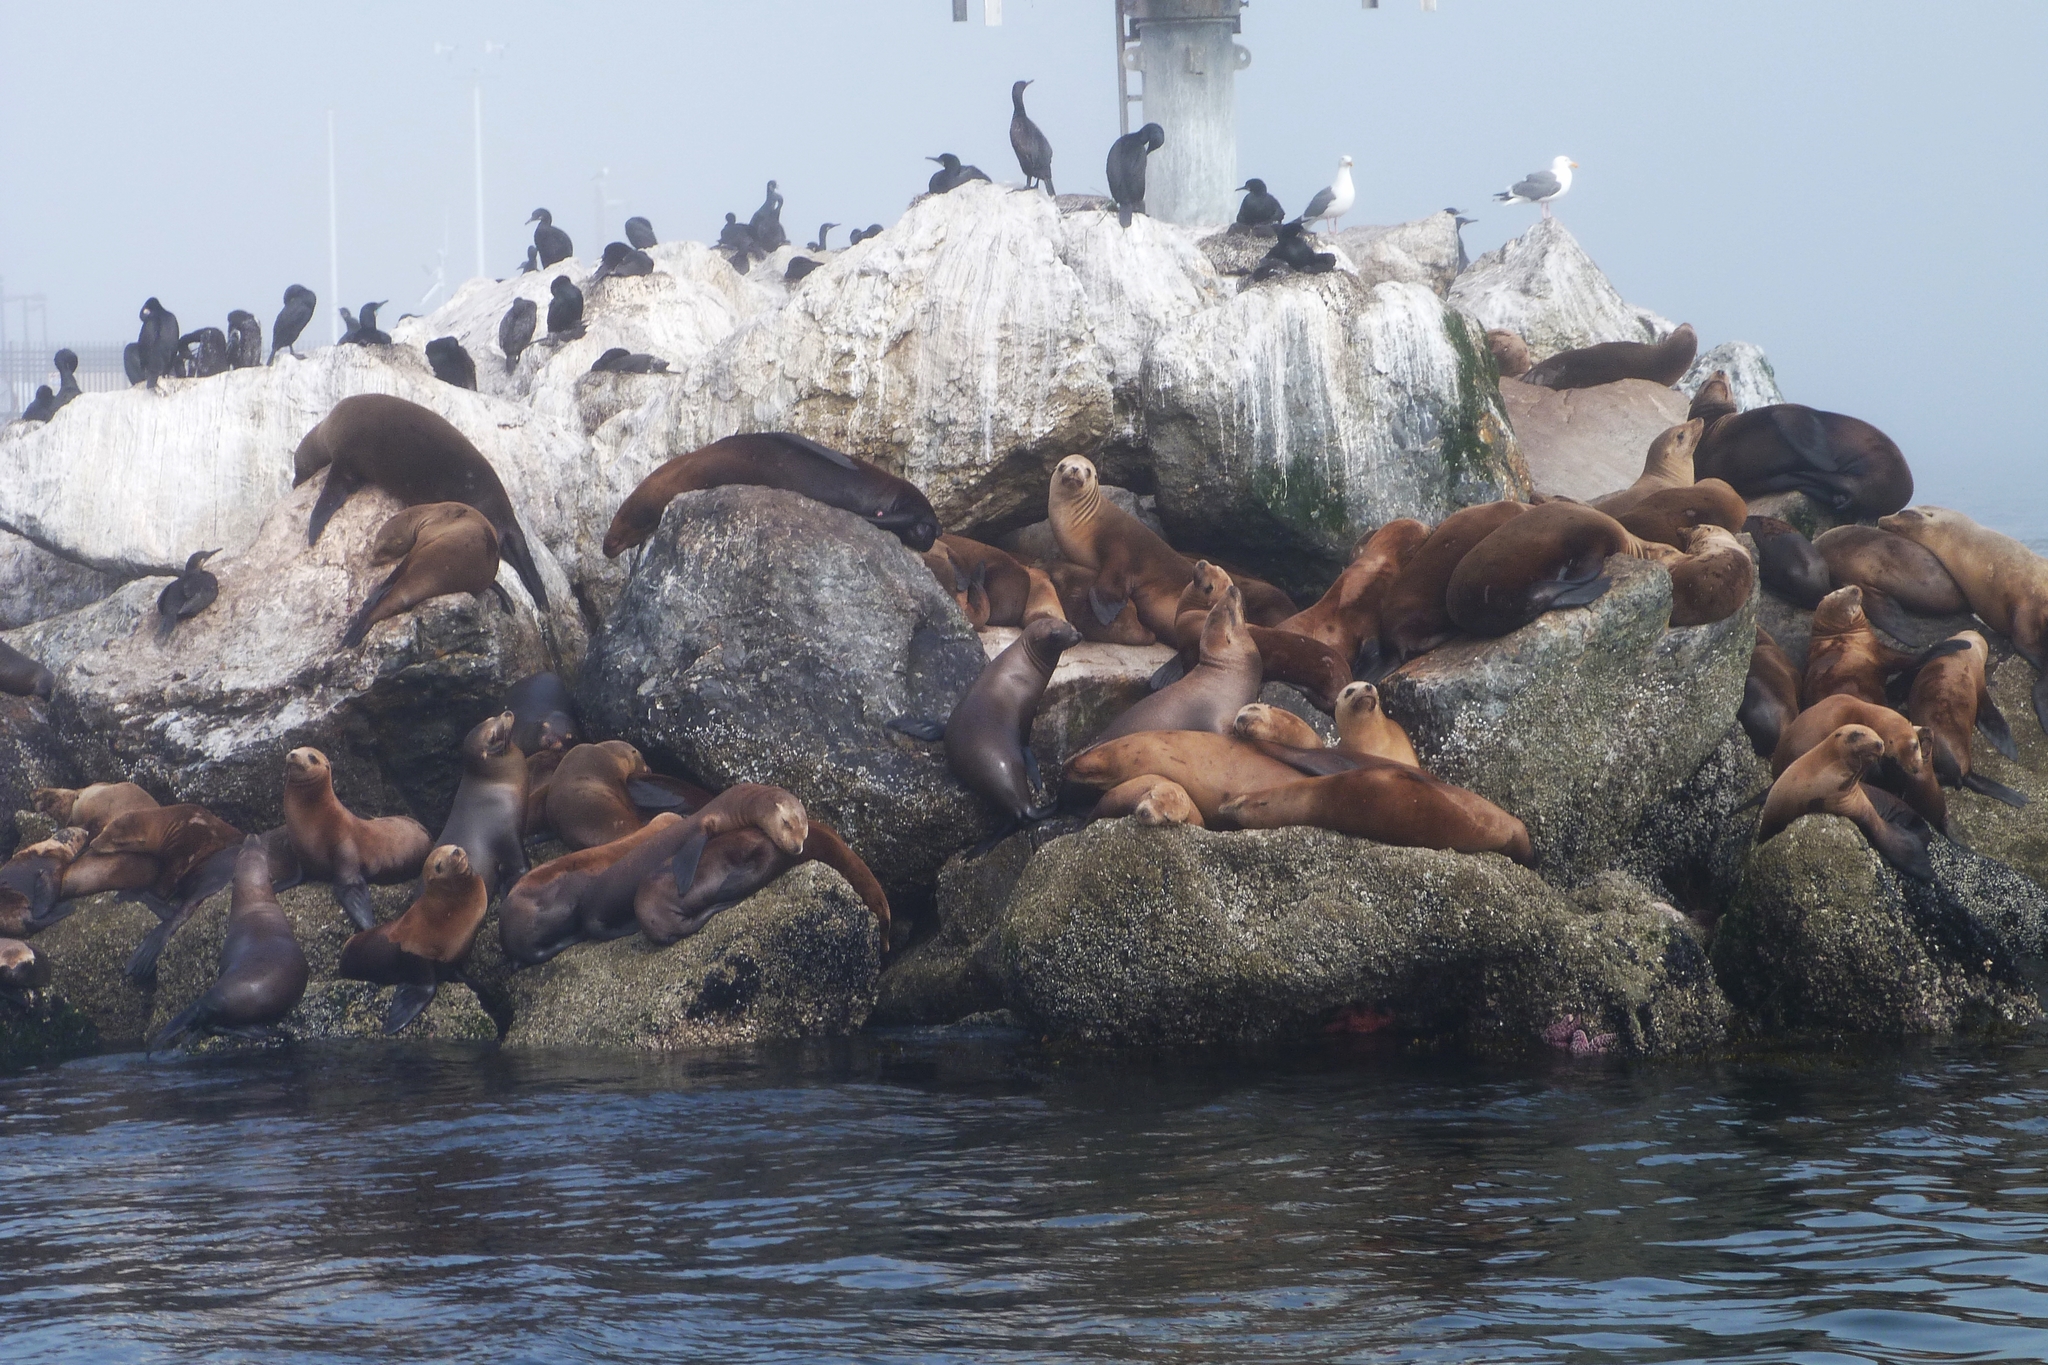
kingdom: Animalia
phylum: Chordata
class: Mammalia
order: Carnivora
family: Otariidae
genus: Zalophus
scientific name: Zalophus californianus
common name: California sea lion
